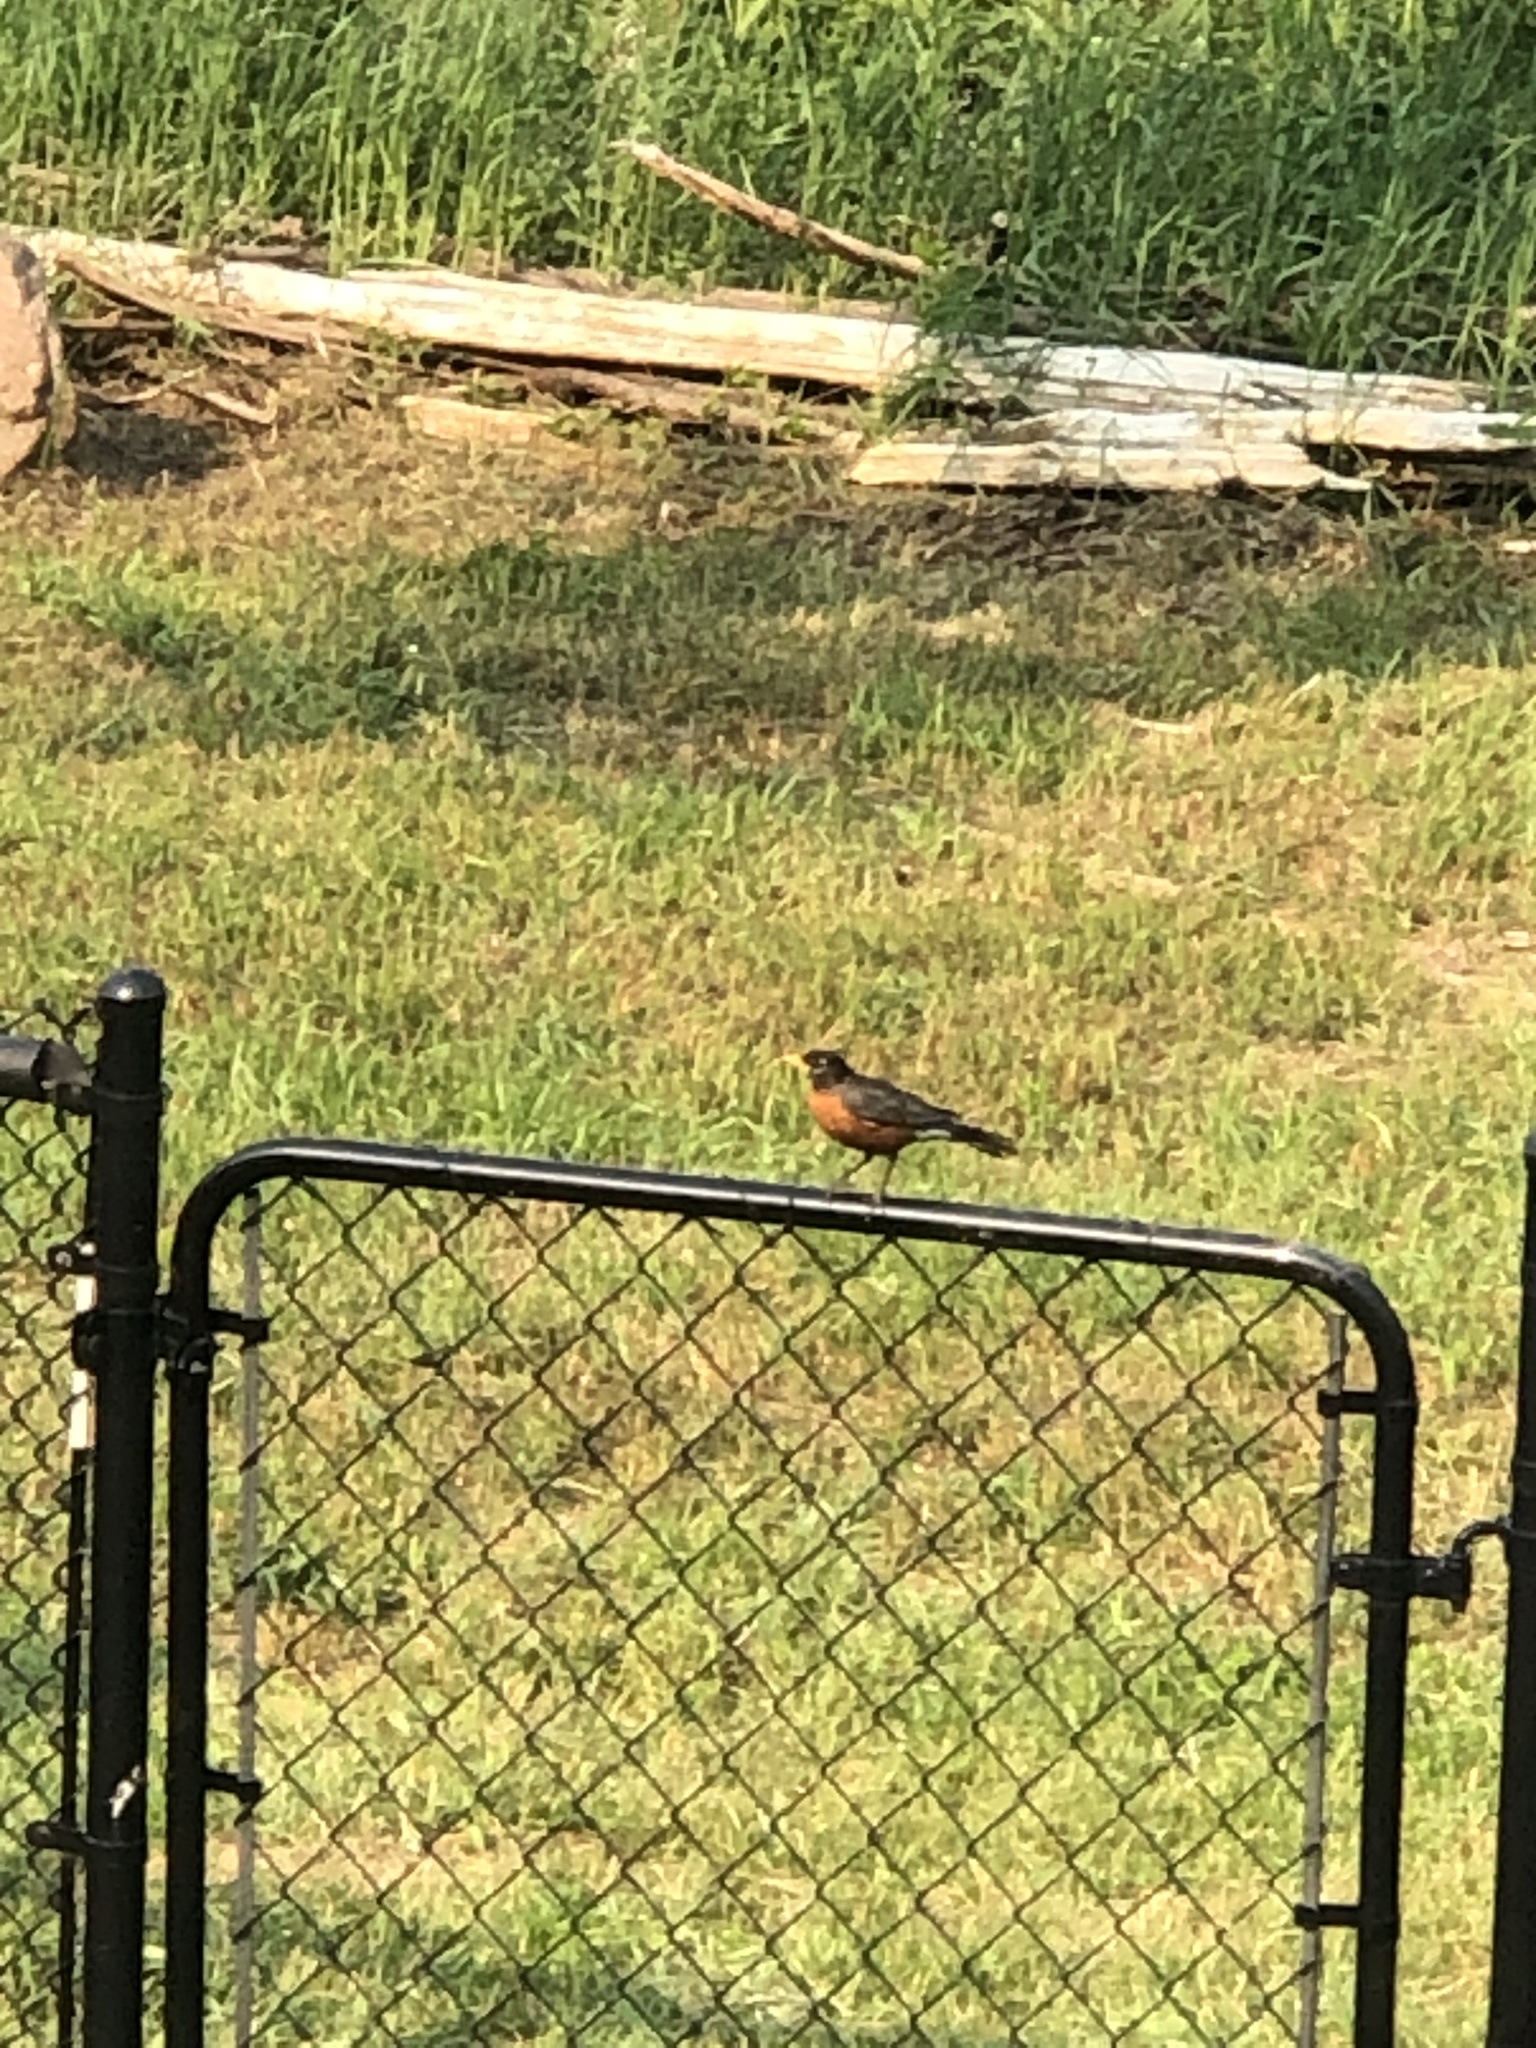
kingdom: Animalia
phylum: Chordata
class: Aves
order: Passeriformes
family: Turdidae
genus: Turdus
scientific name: Turdus migratorius
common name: American robin
